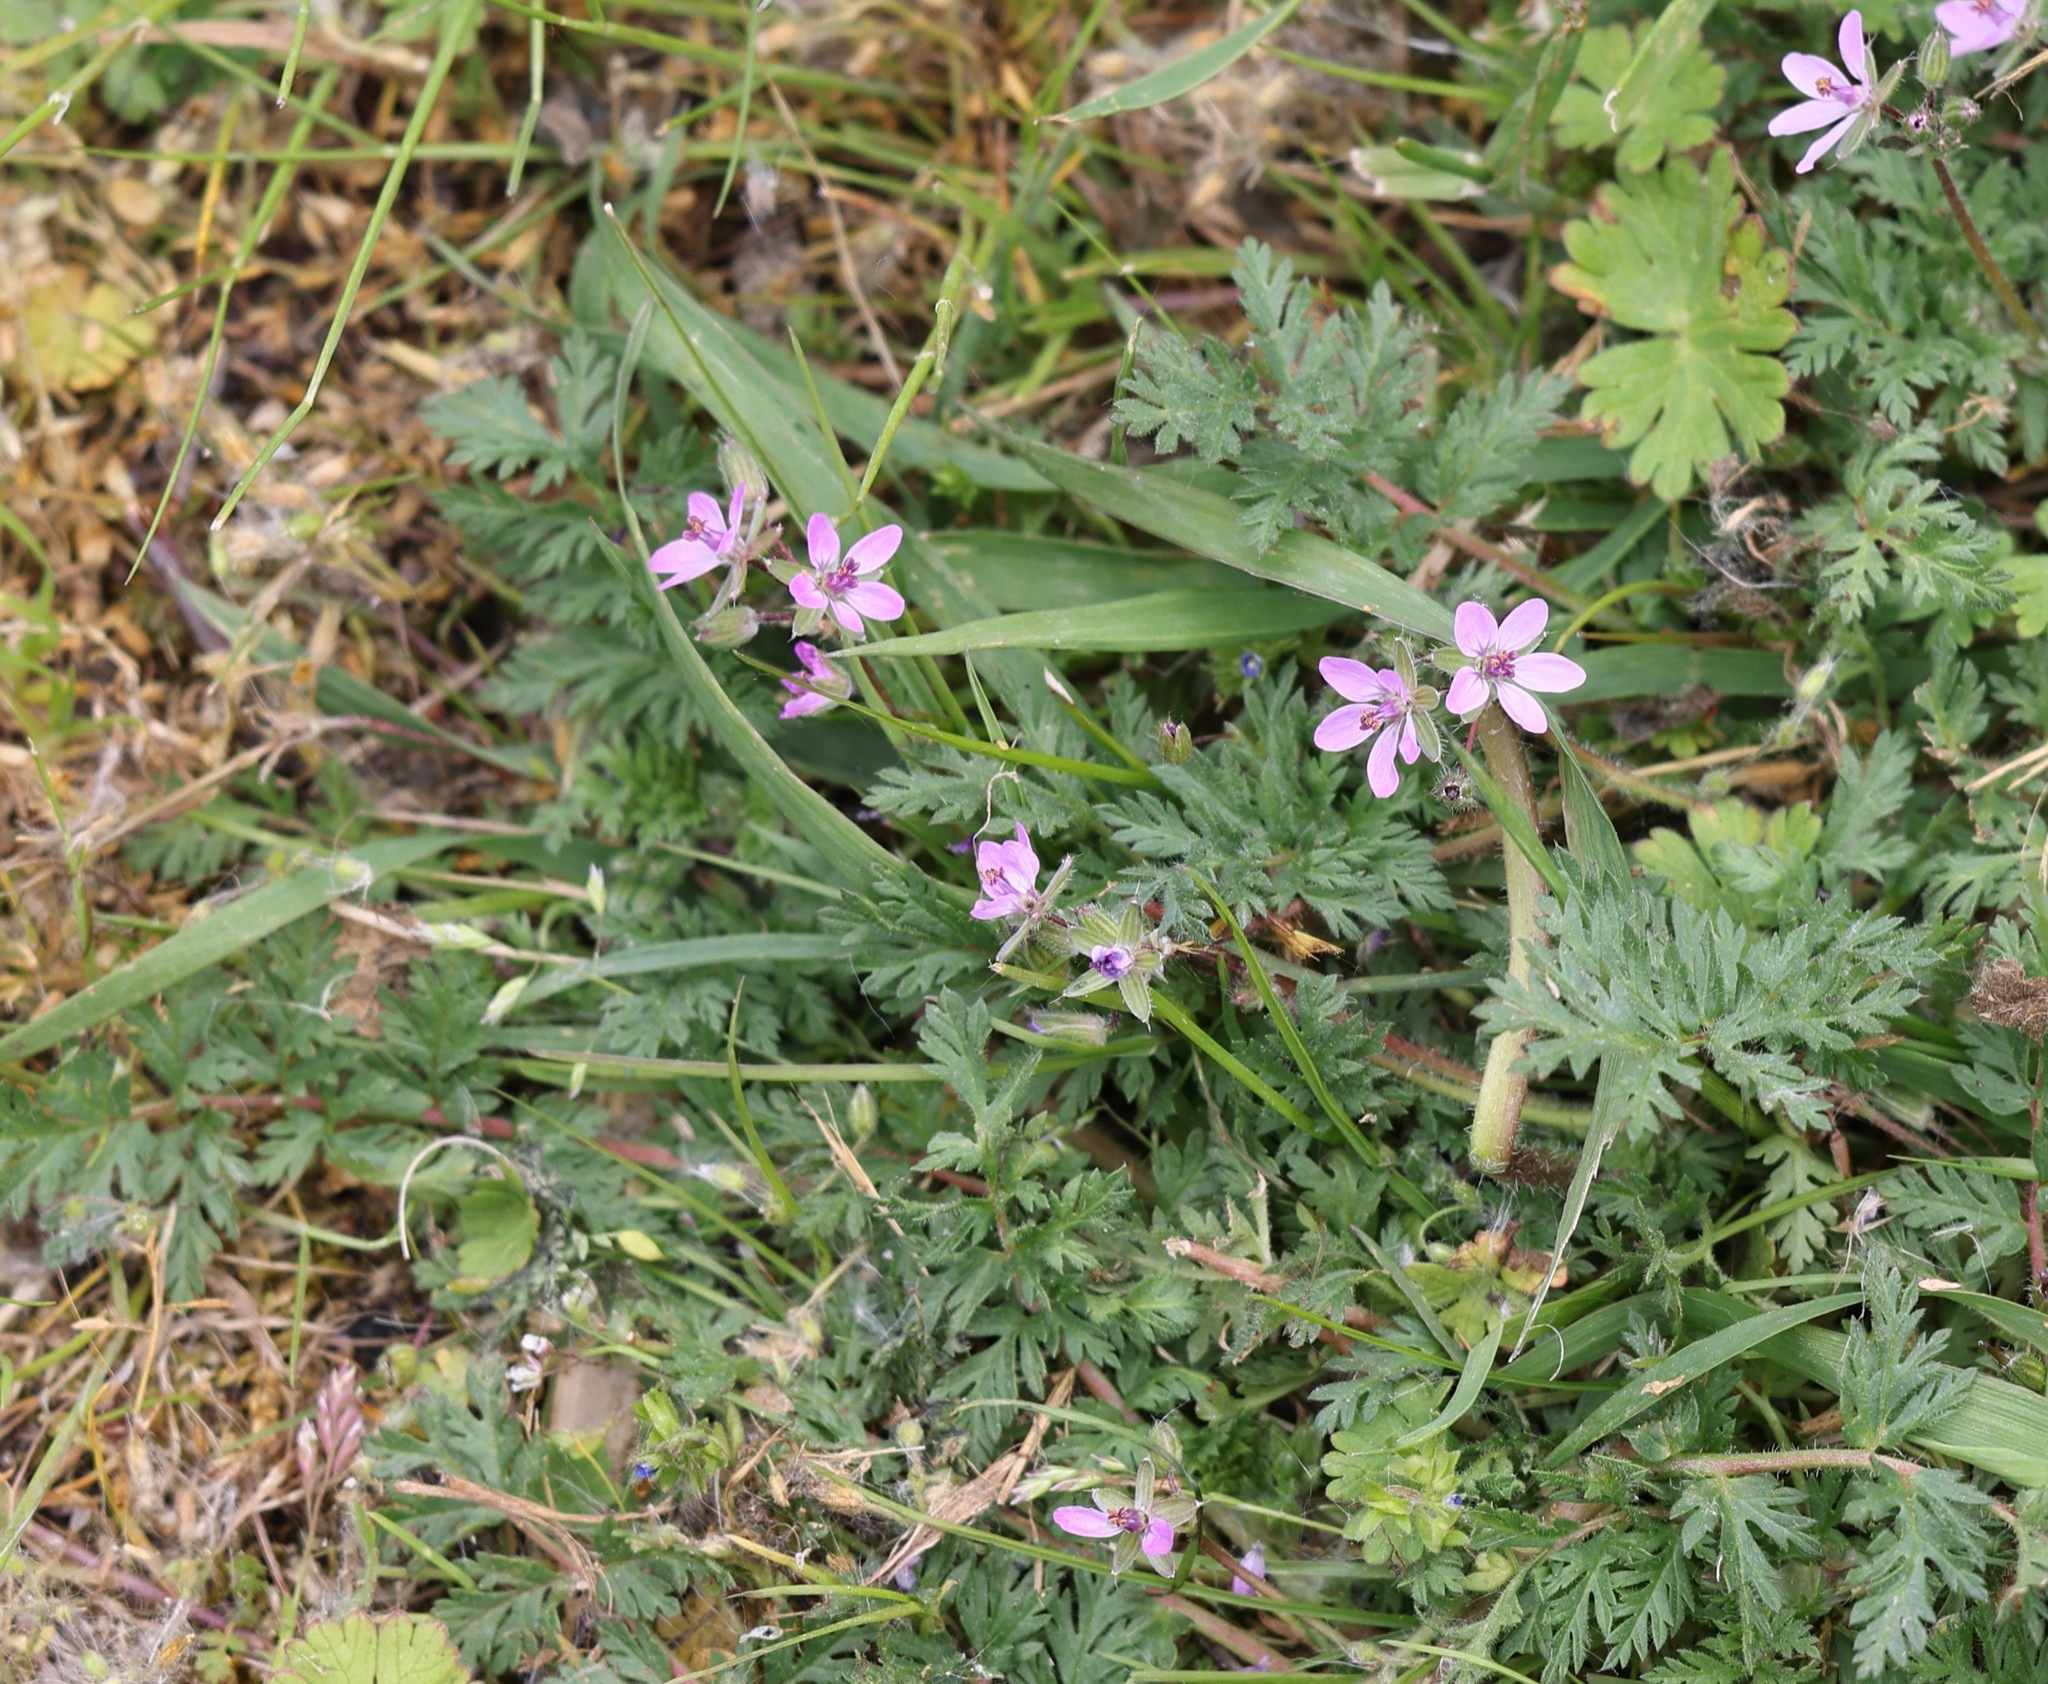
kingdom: Plantae
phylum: Tracheophyta
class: Magnoliopsida
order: Geraniales
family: Geraniaceae
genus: Erodium
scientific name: Erodium cicutarium
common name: Common stork's-bill
